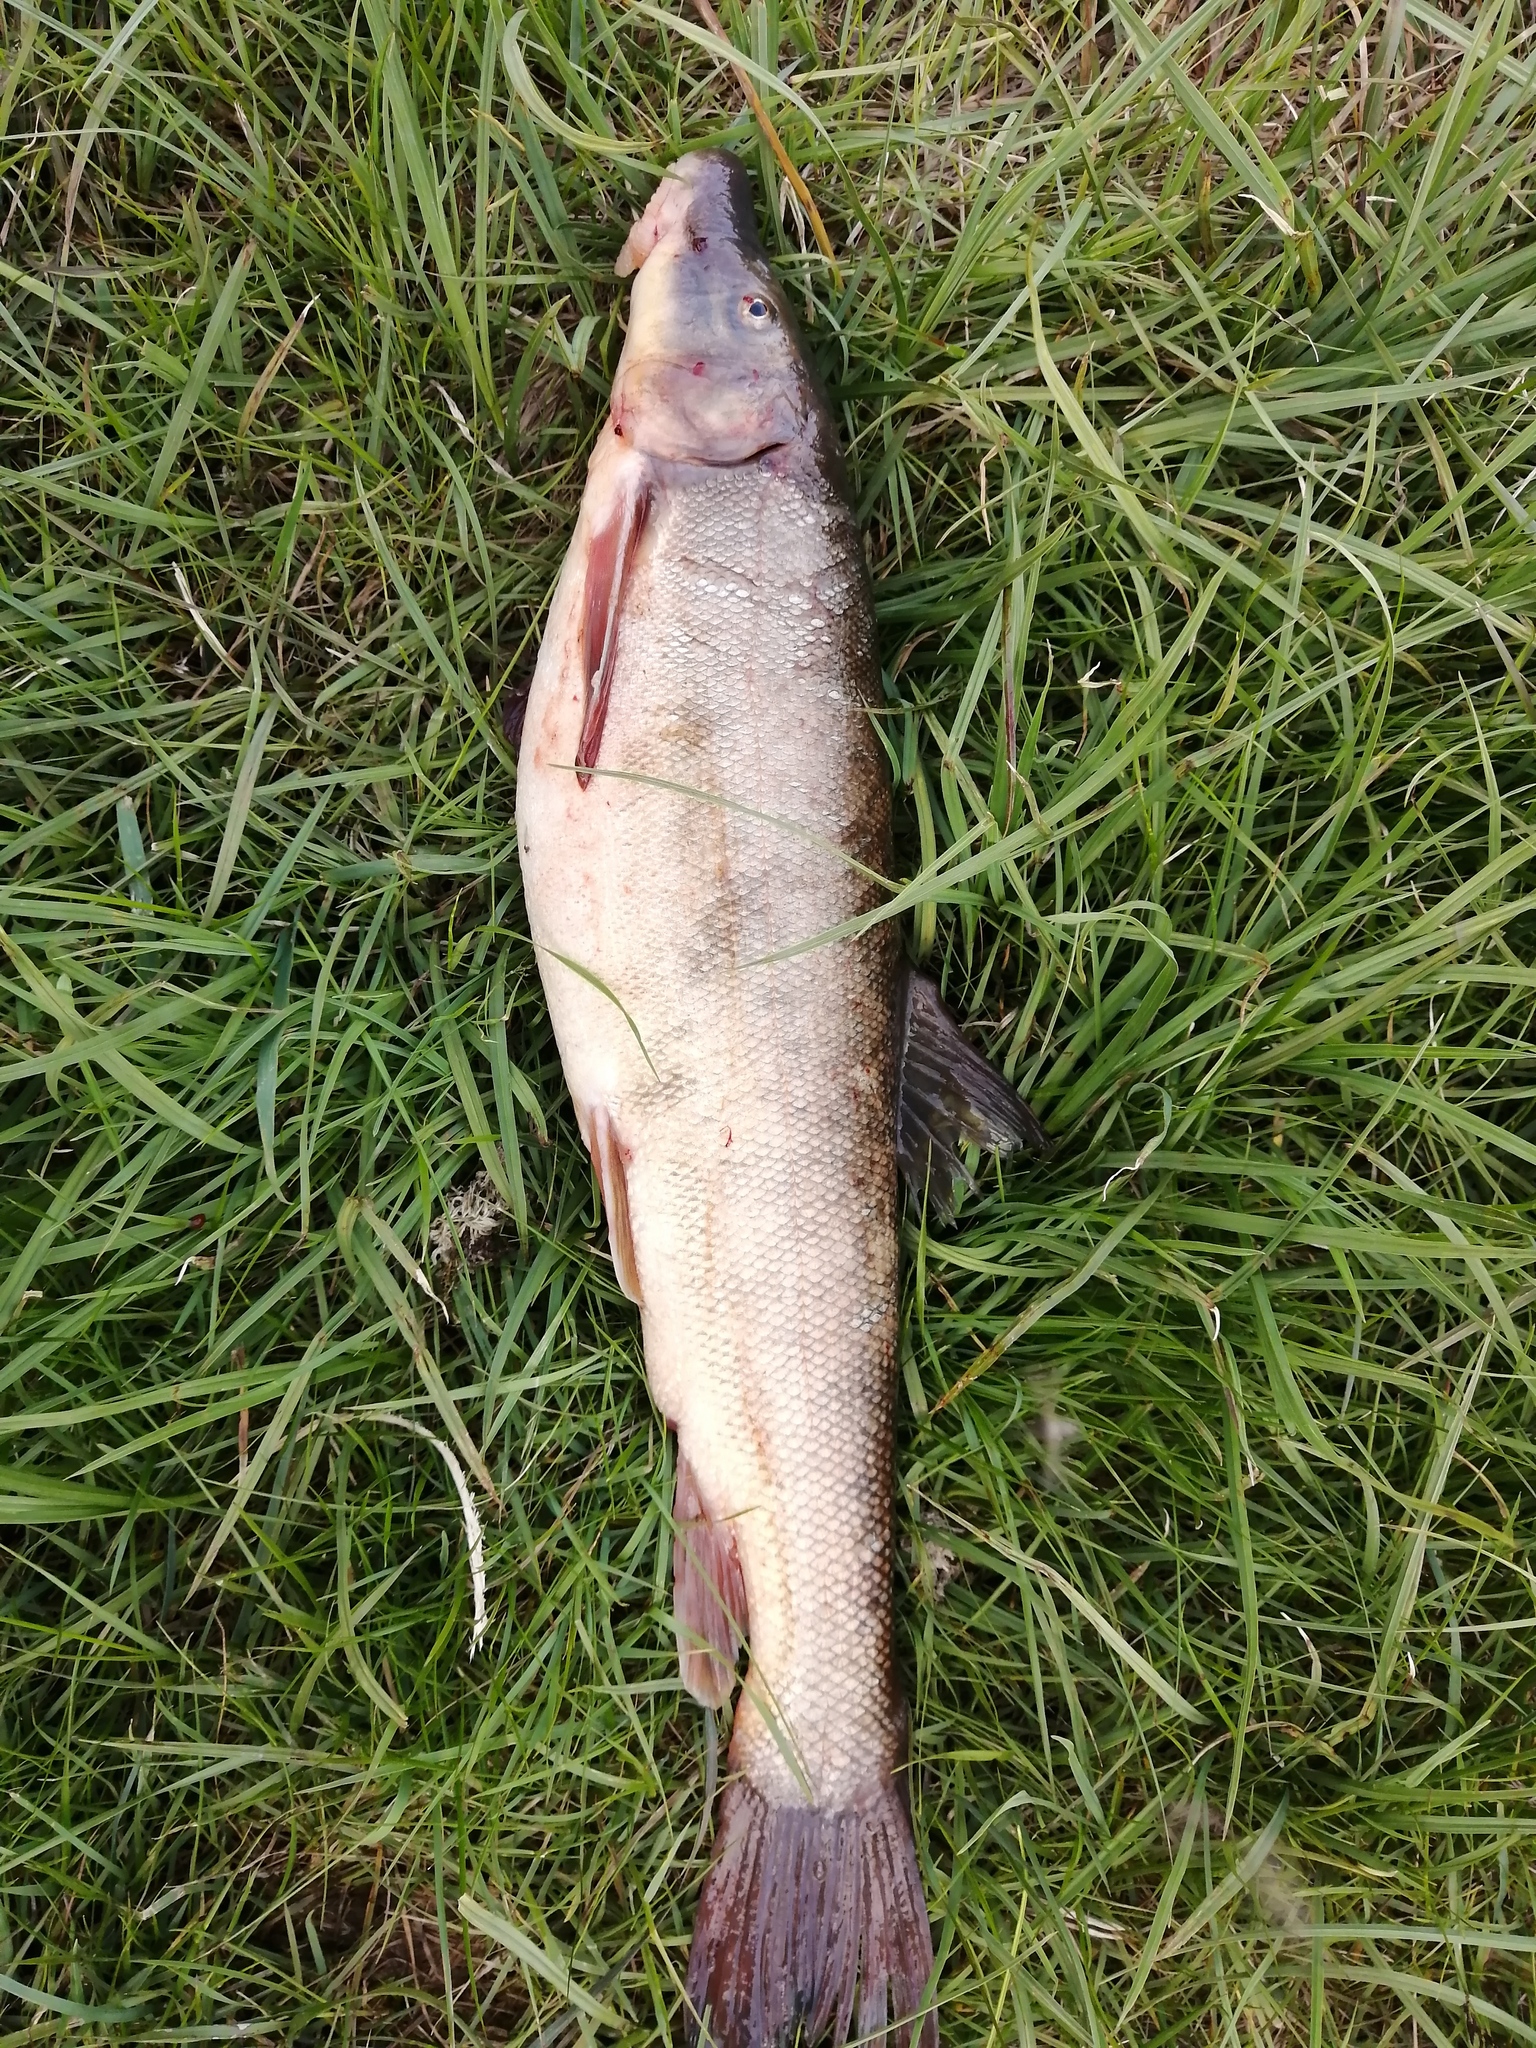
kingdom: Animalia
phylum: Chordata
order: Cypriniformes
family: Catostomidae
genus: Catostomus
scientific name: Catostomus catostomus
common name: Longnose sucker
